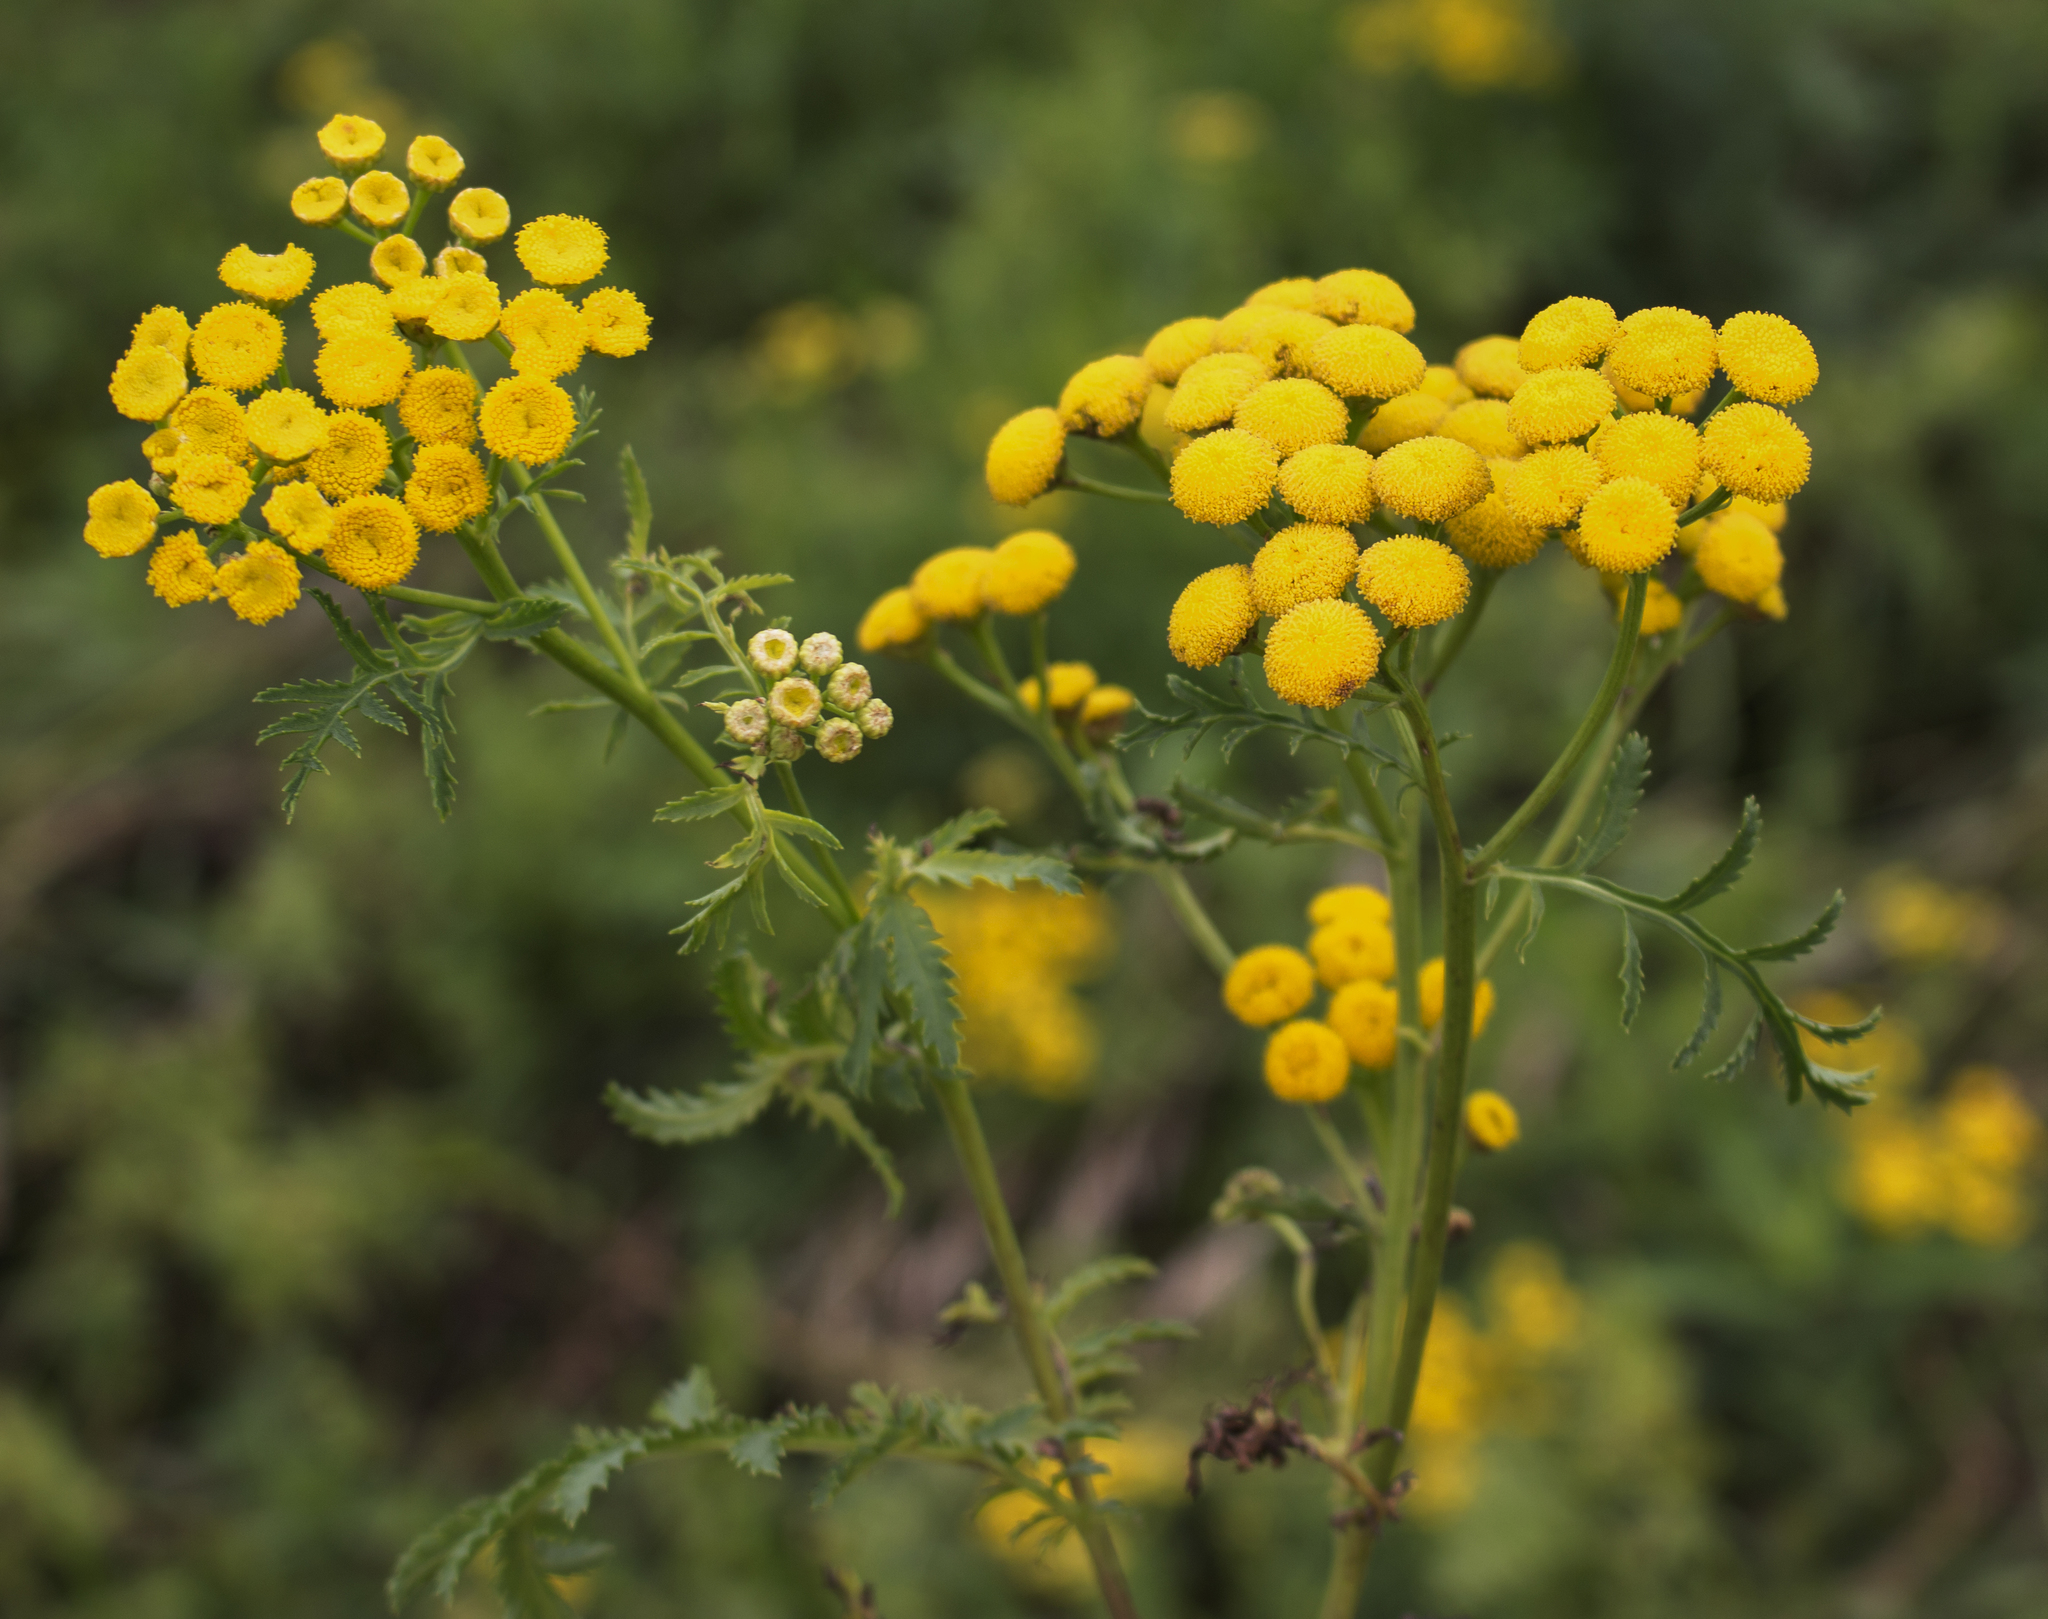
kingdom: Plantae
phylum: Tracheophyta
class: Magnoliopsida
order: Asterales
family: Asteraceae
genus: Tanacetum
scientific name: Tanacetum vulgare
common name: Common tansy
